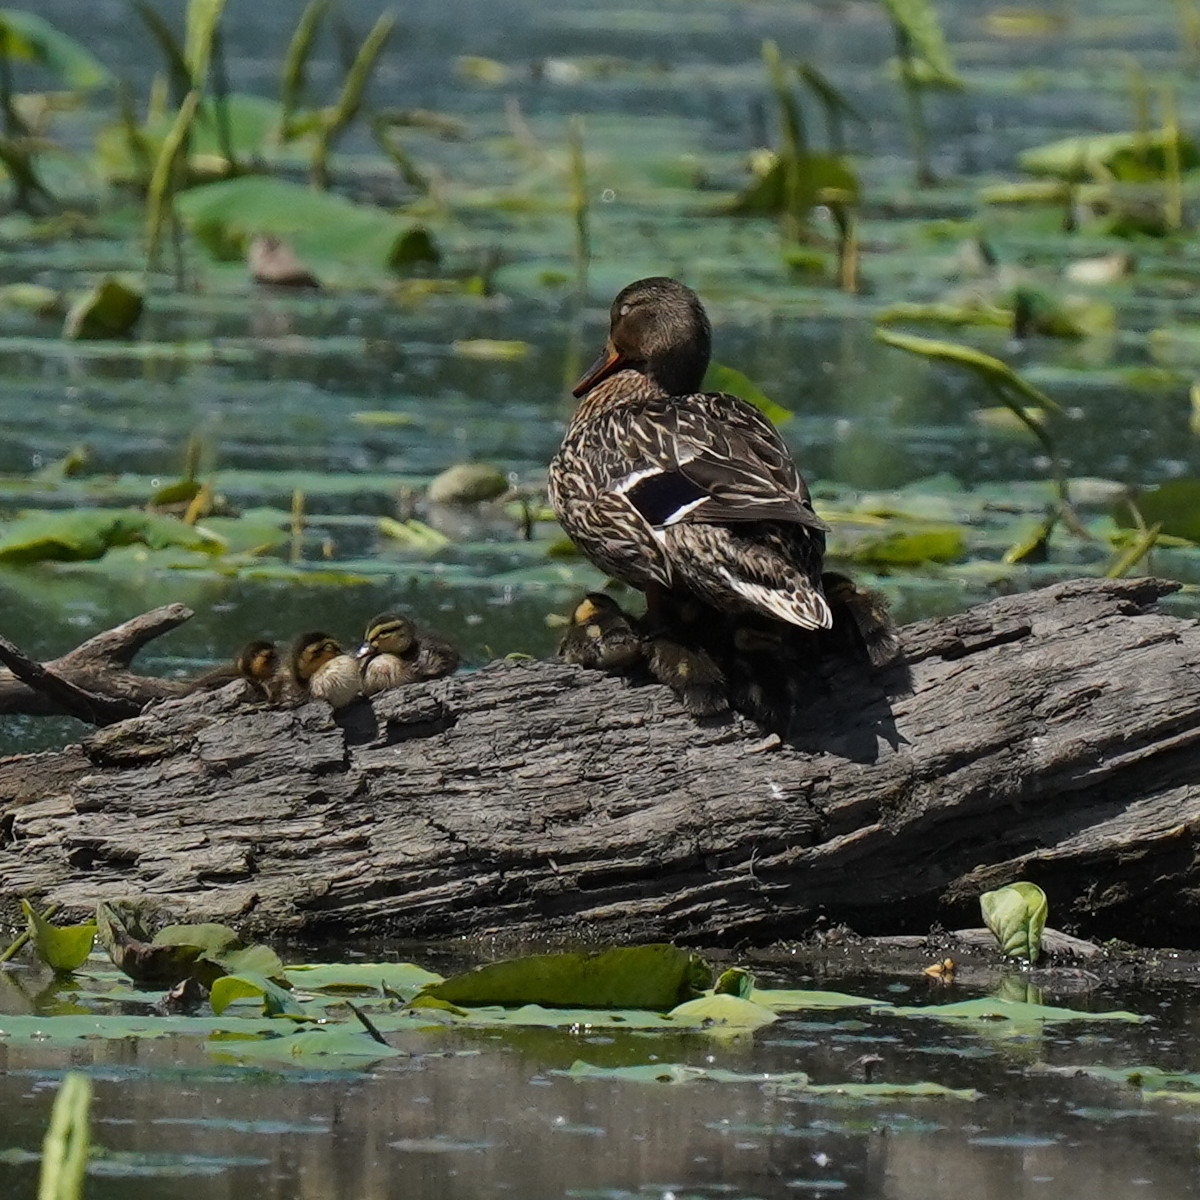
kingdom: Animalia
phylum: Chordata
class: Aves
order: Anseriformes
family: Anatidae
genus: Anas
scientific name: Anas platyrhynchos
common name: Mallard
